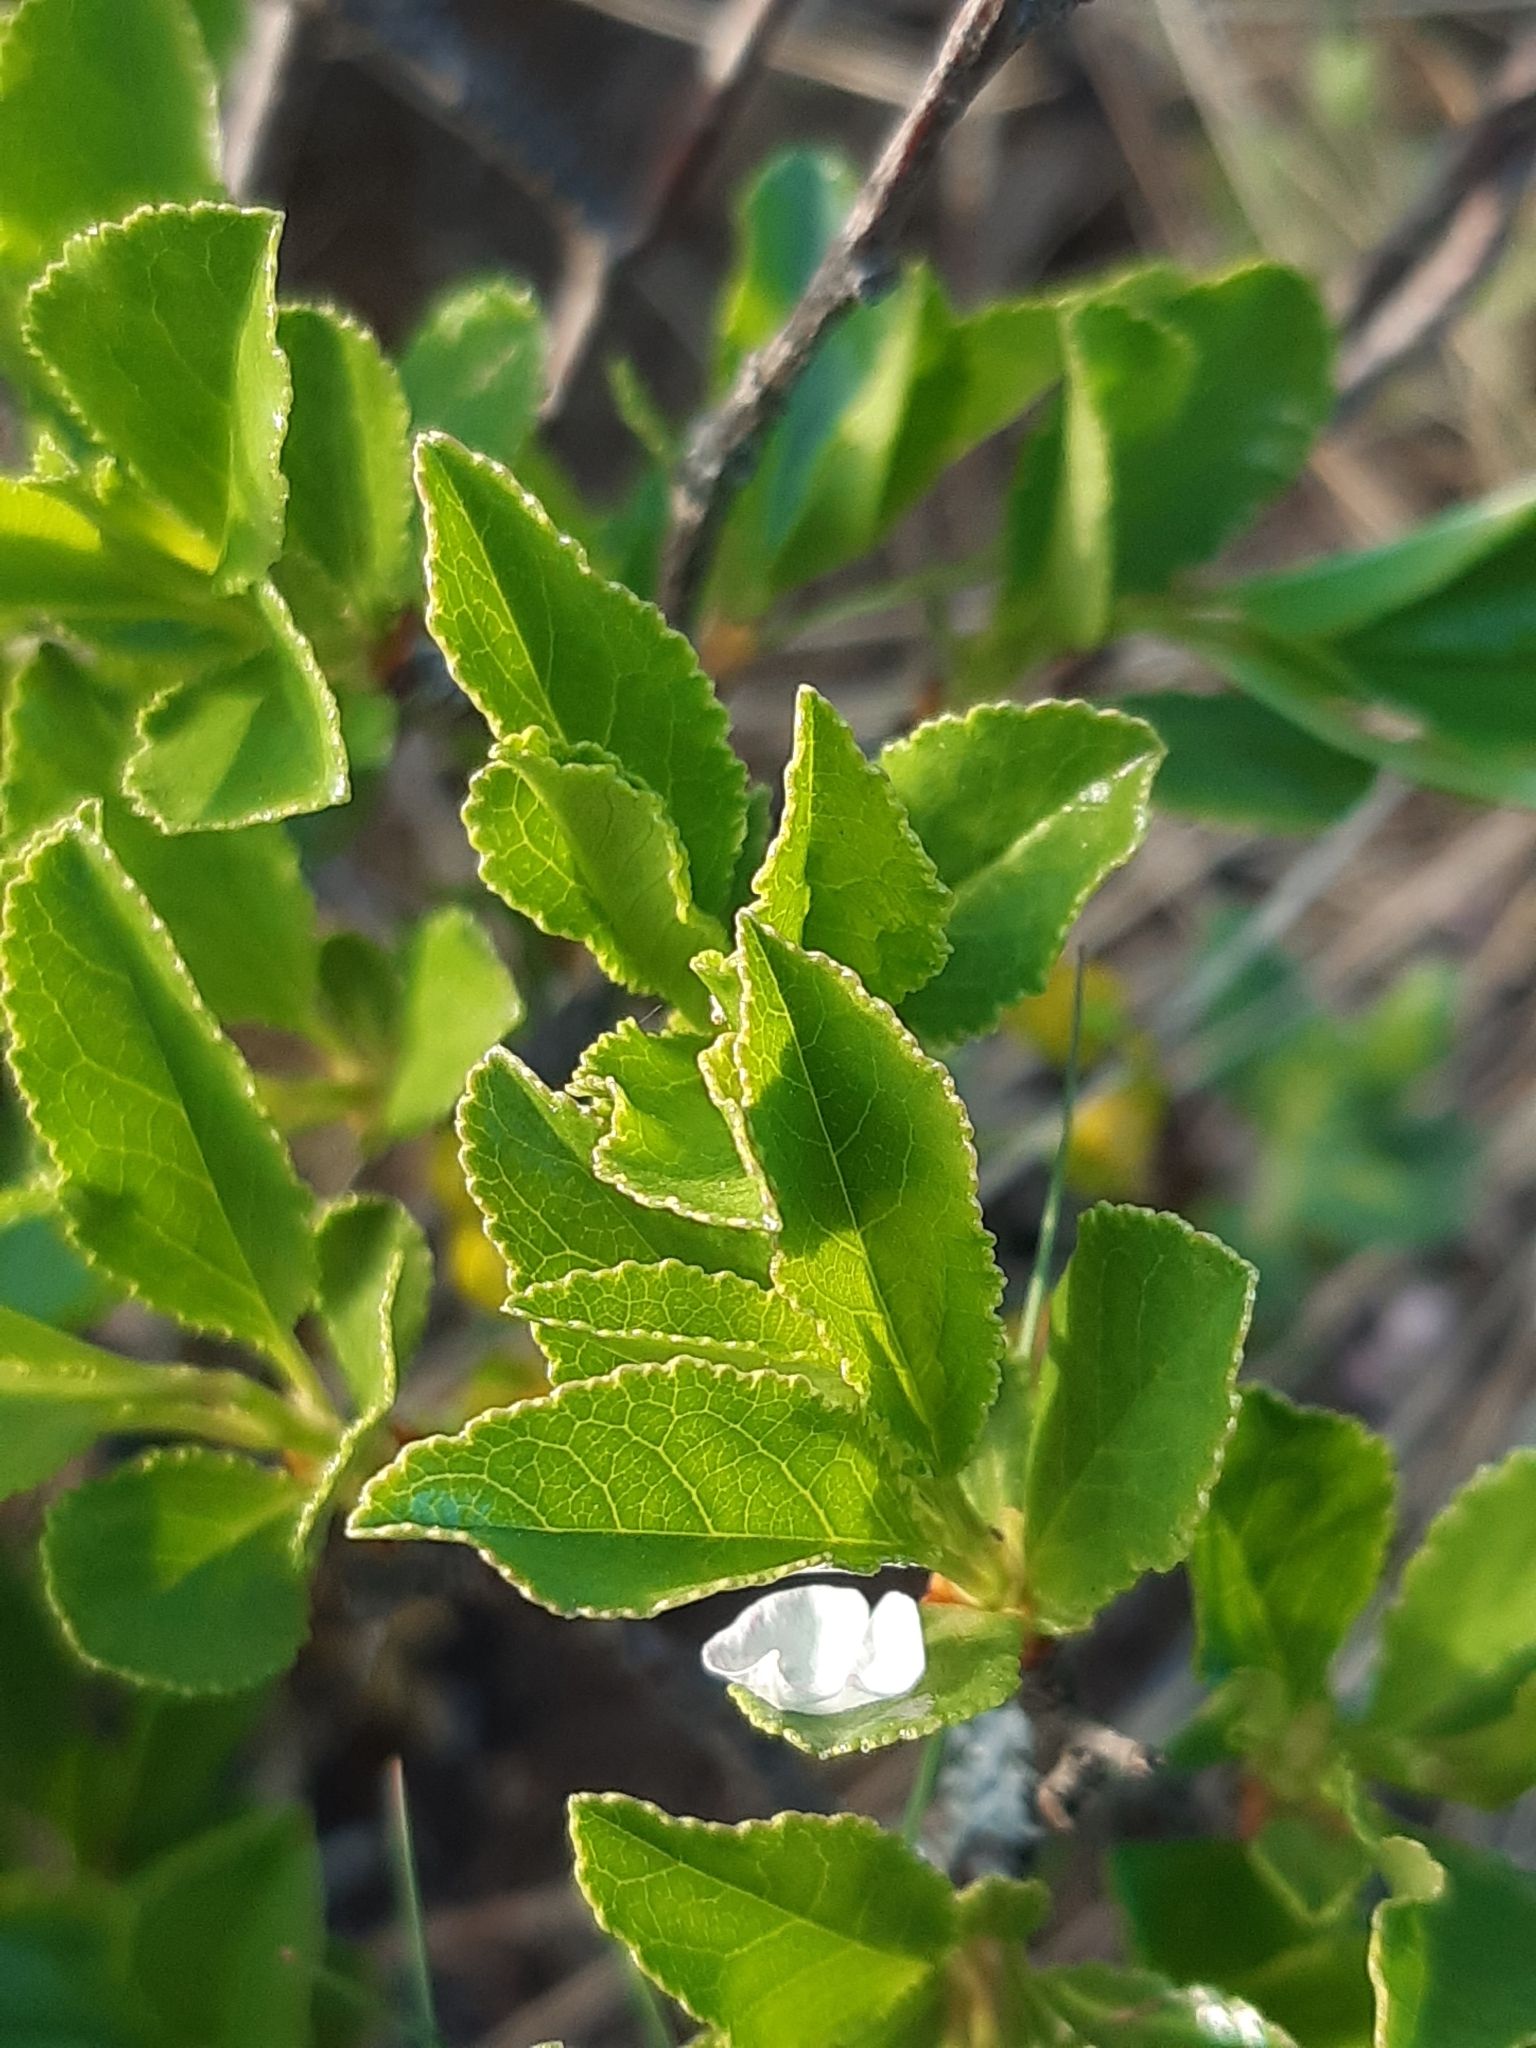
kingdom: Plantae
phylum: Tracheophyta
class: Magnoliopsida
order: Rosales
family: Rosaceae
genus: Prunus
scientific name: Prunus fruticosa
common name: European dwarf cherry
